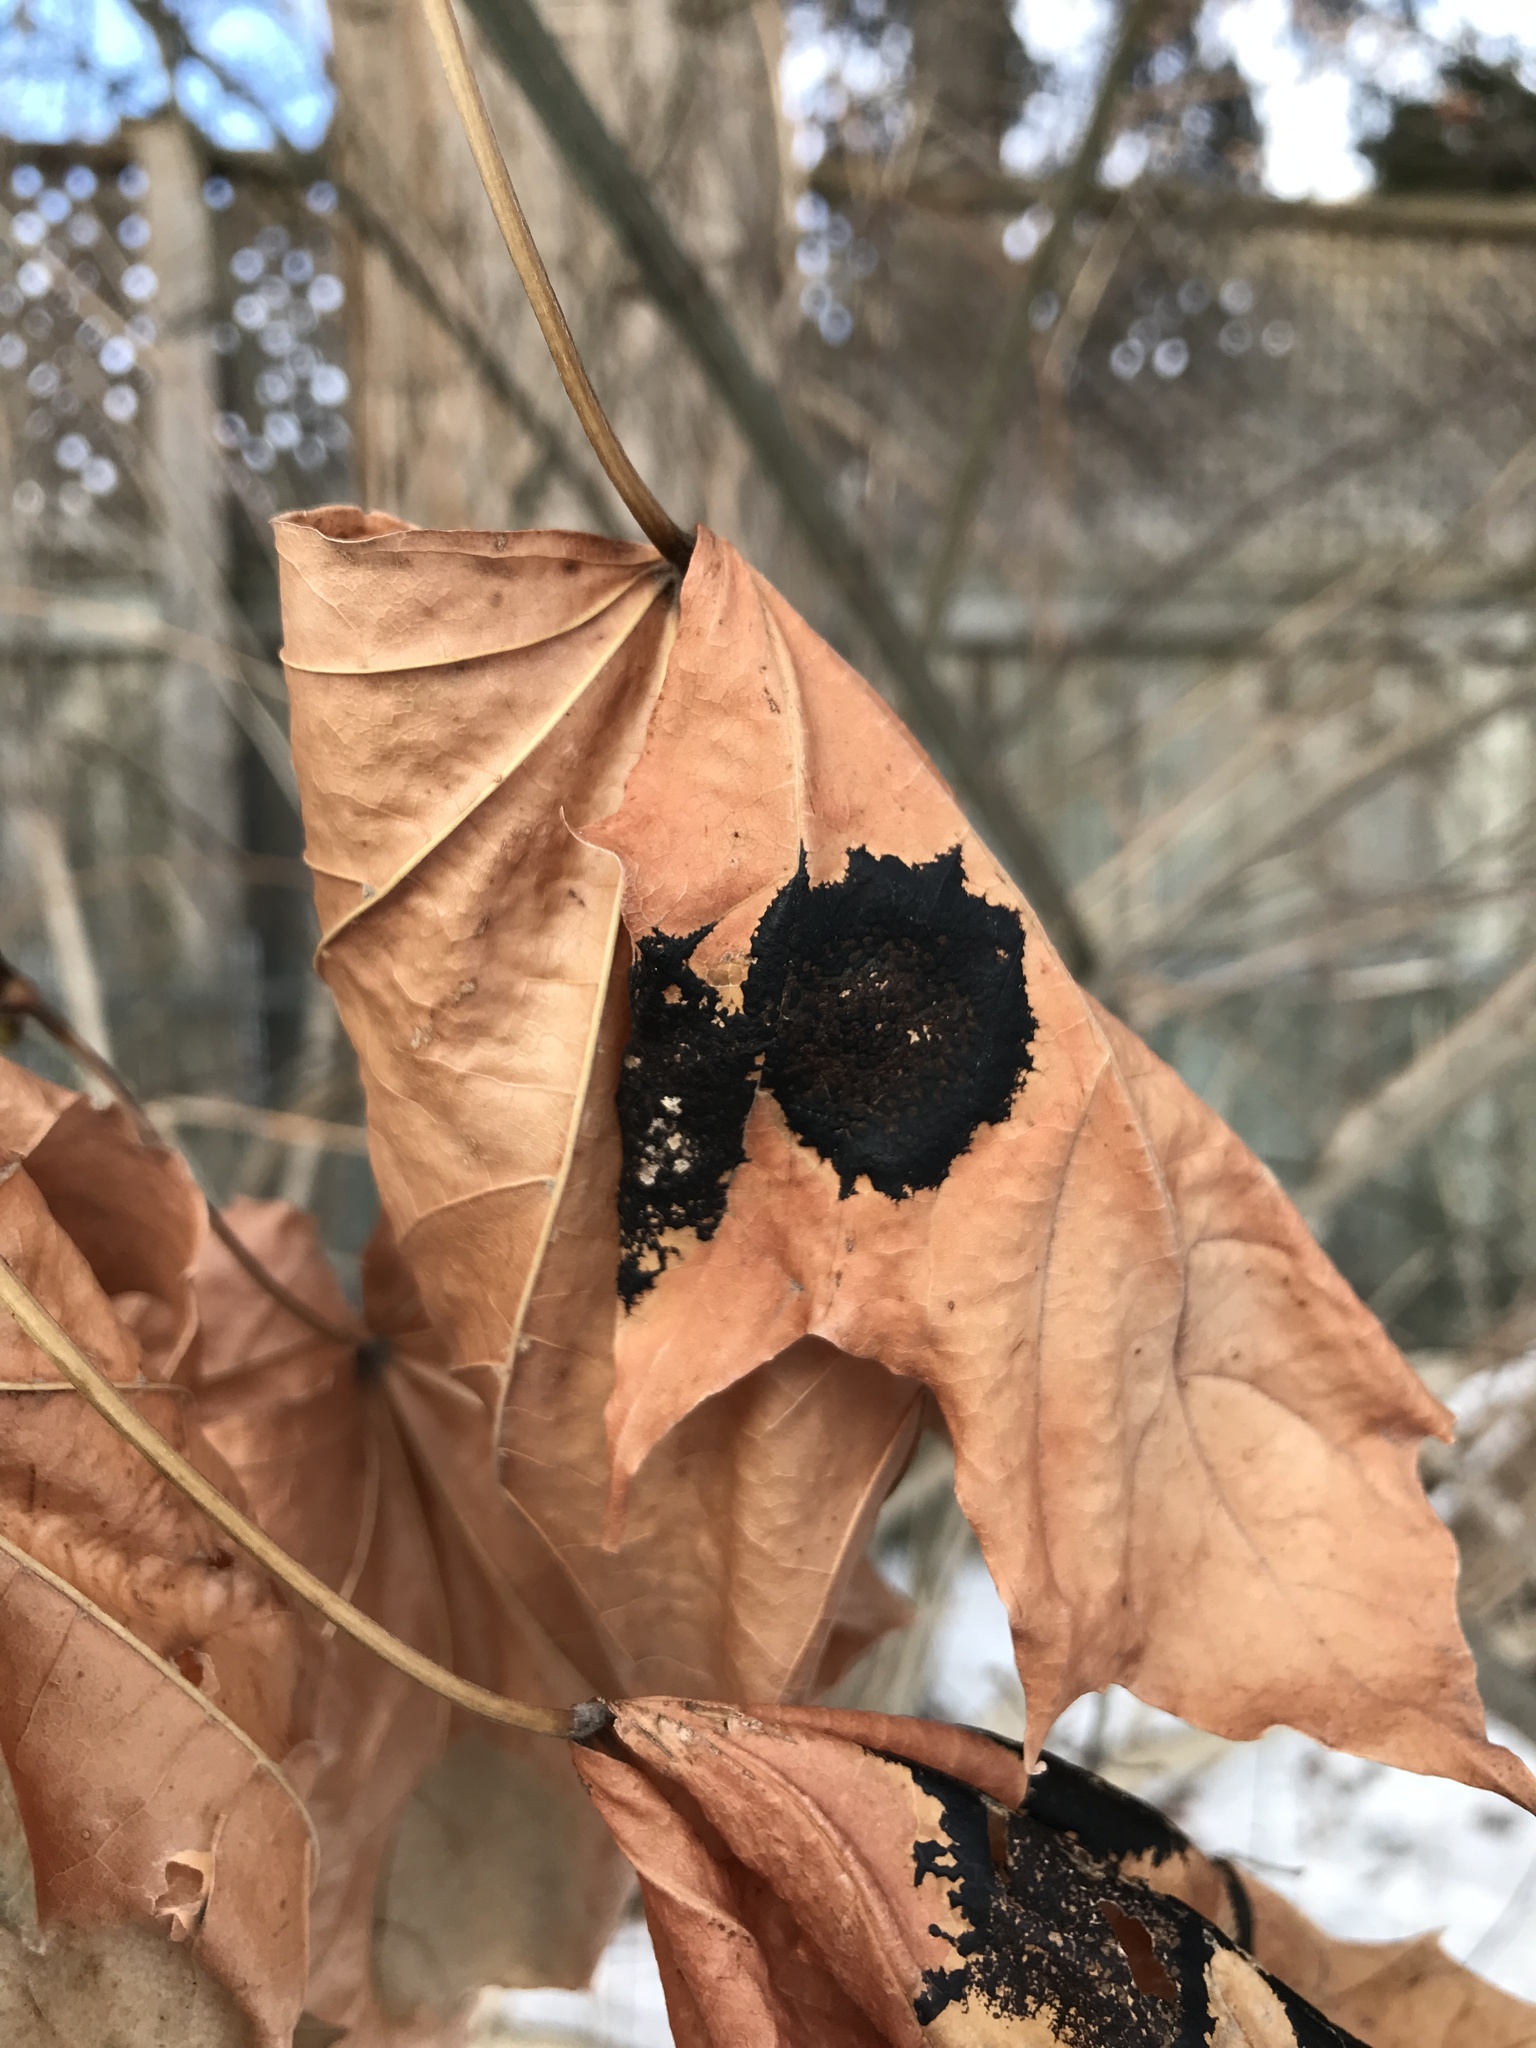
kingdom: Fungi
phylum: Ascomycota
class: Leotiomycetes
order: Rhytismatales
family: Rhytismataceae
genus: Rhytisma
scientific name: Rhytisma acerinum
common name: European tar spot
